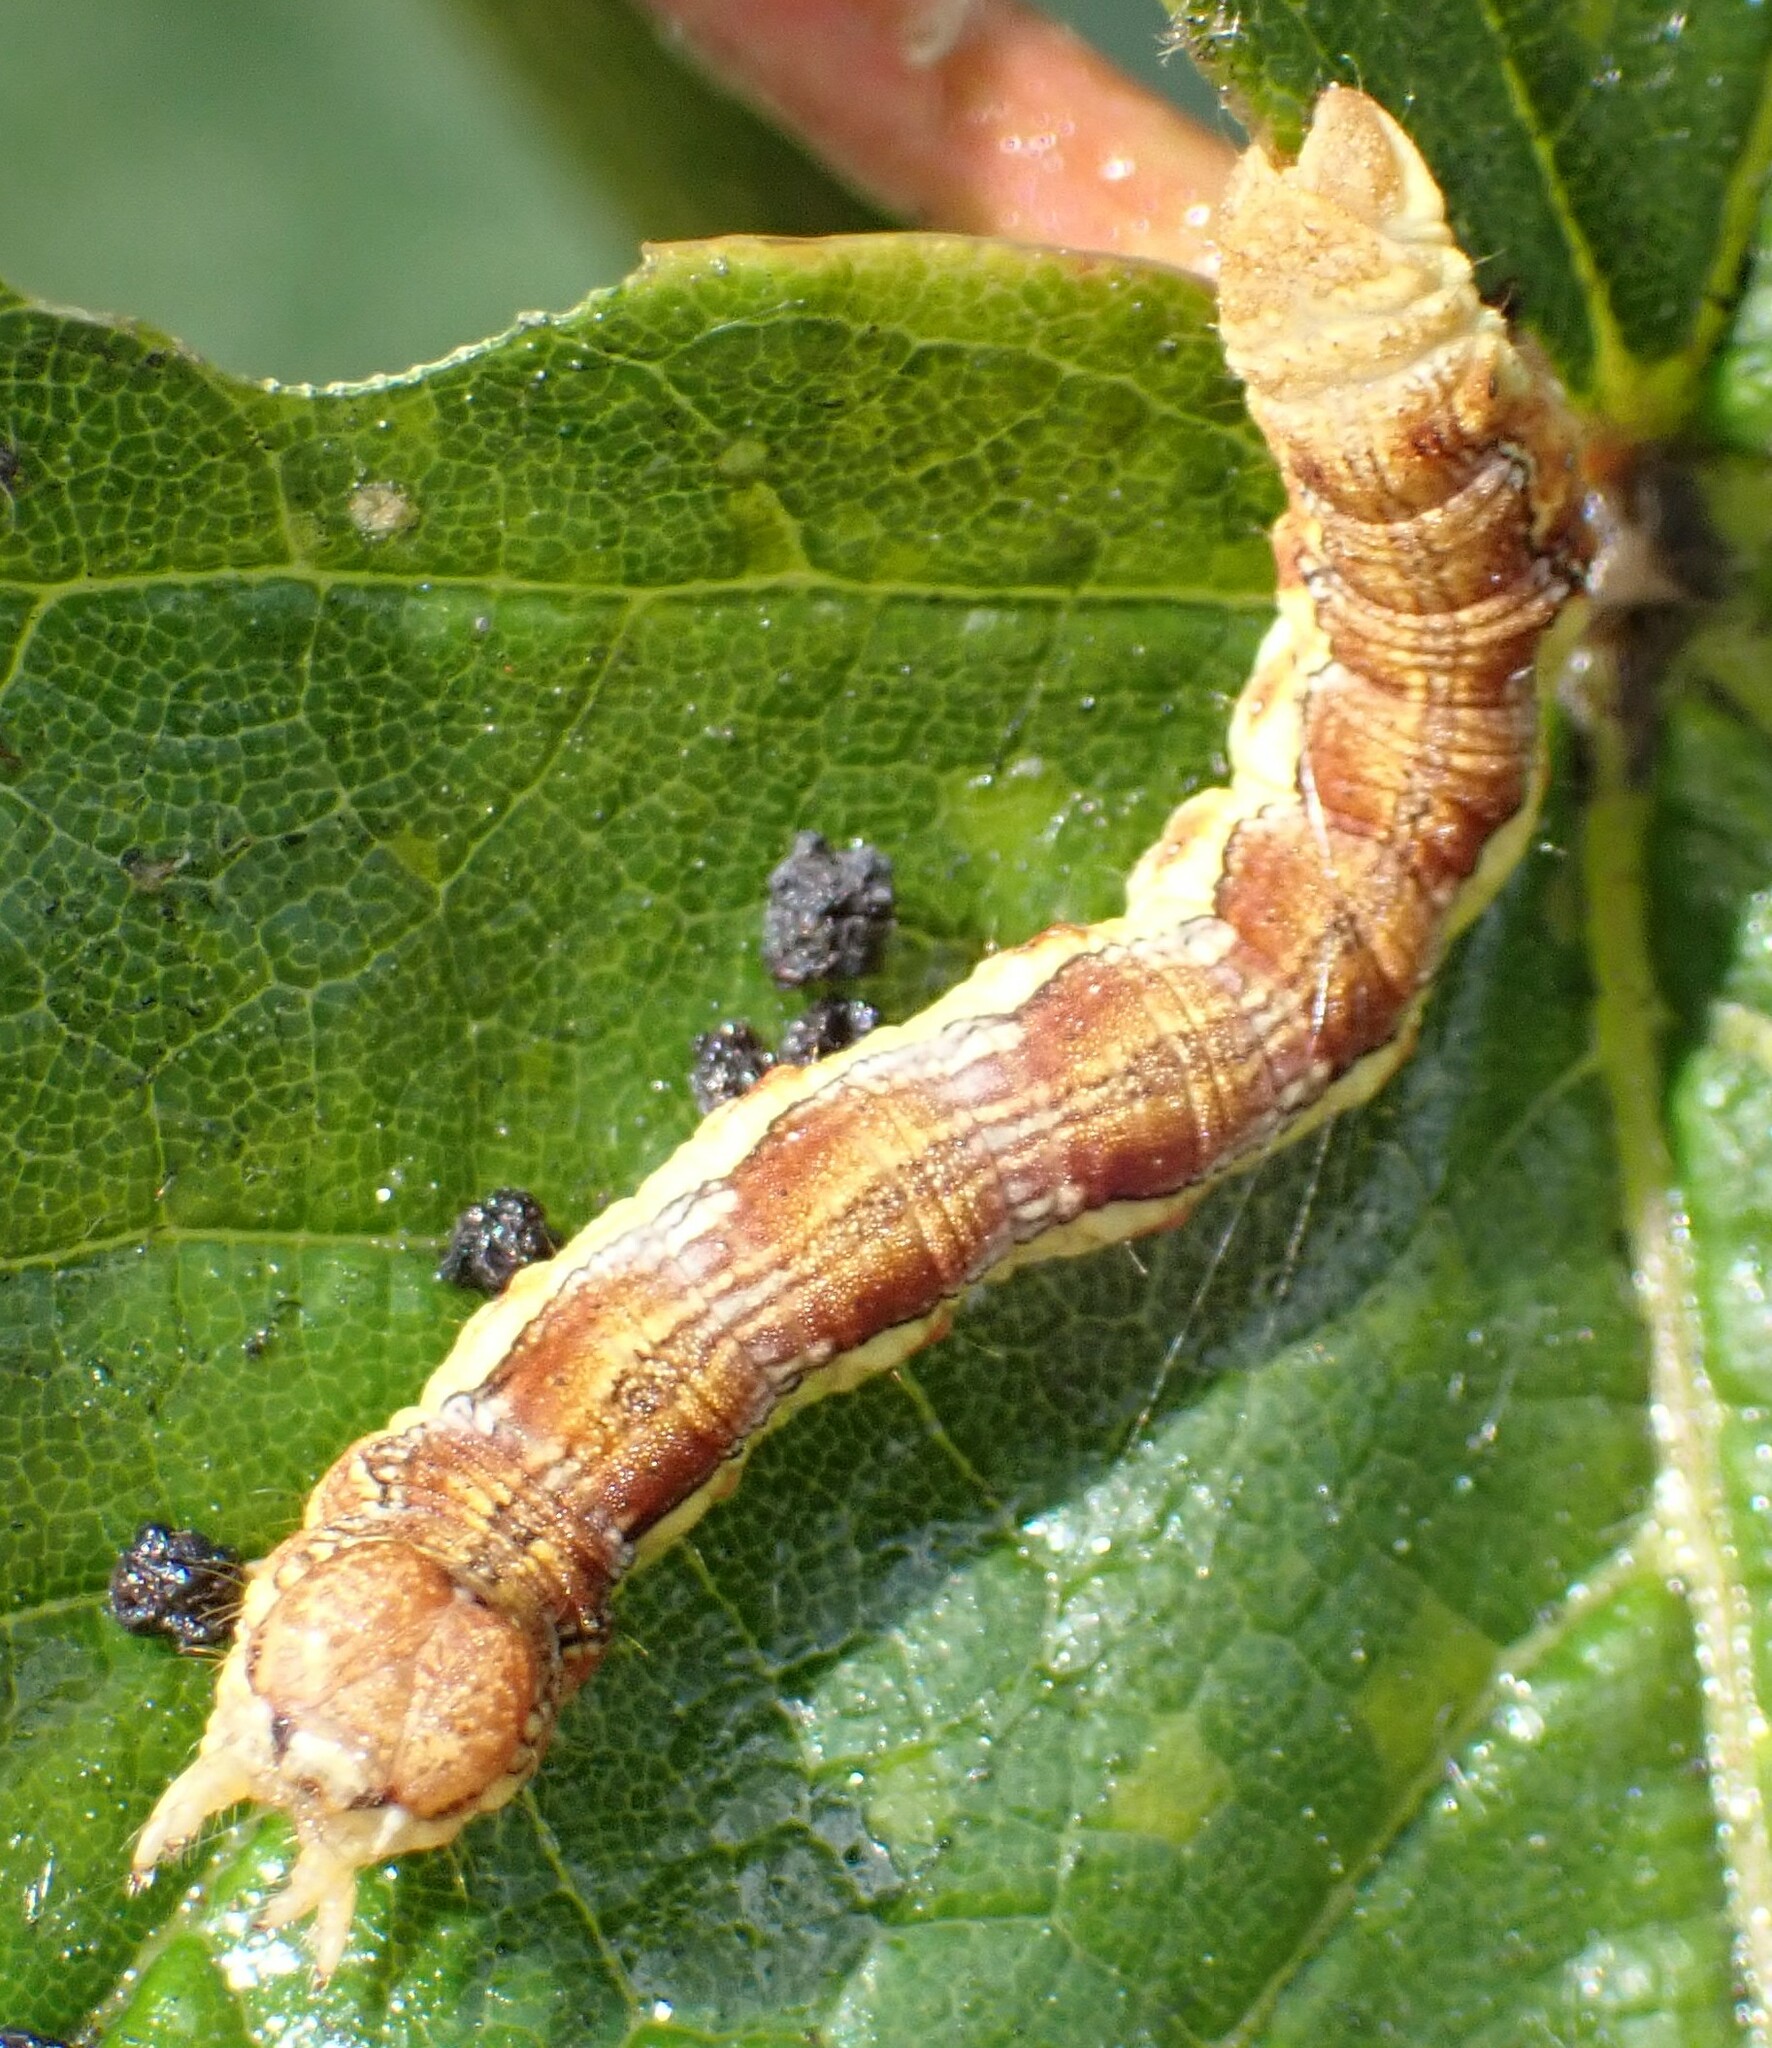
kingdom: Animalia
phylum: Arthropoda
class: Insecta
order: Lepidoptera
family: Geometridae
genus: Erannis
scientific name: Erannis defoliaria
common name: Mottled umber
